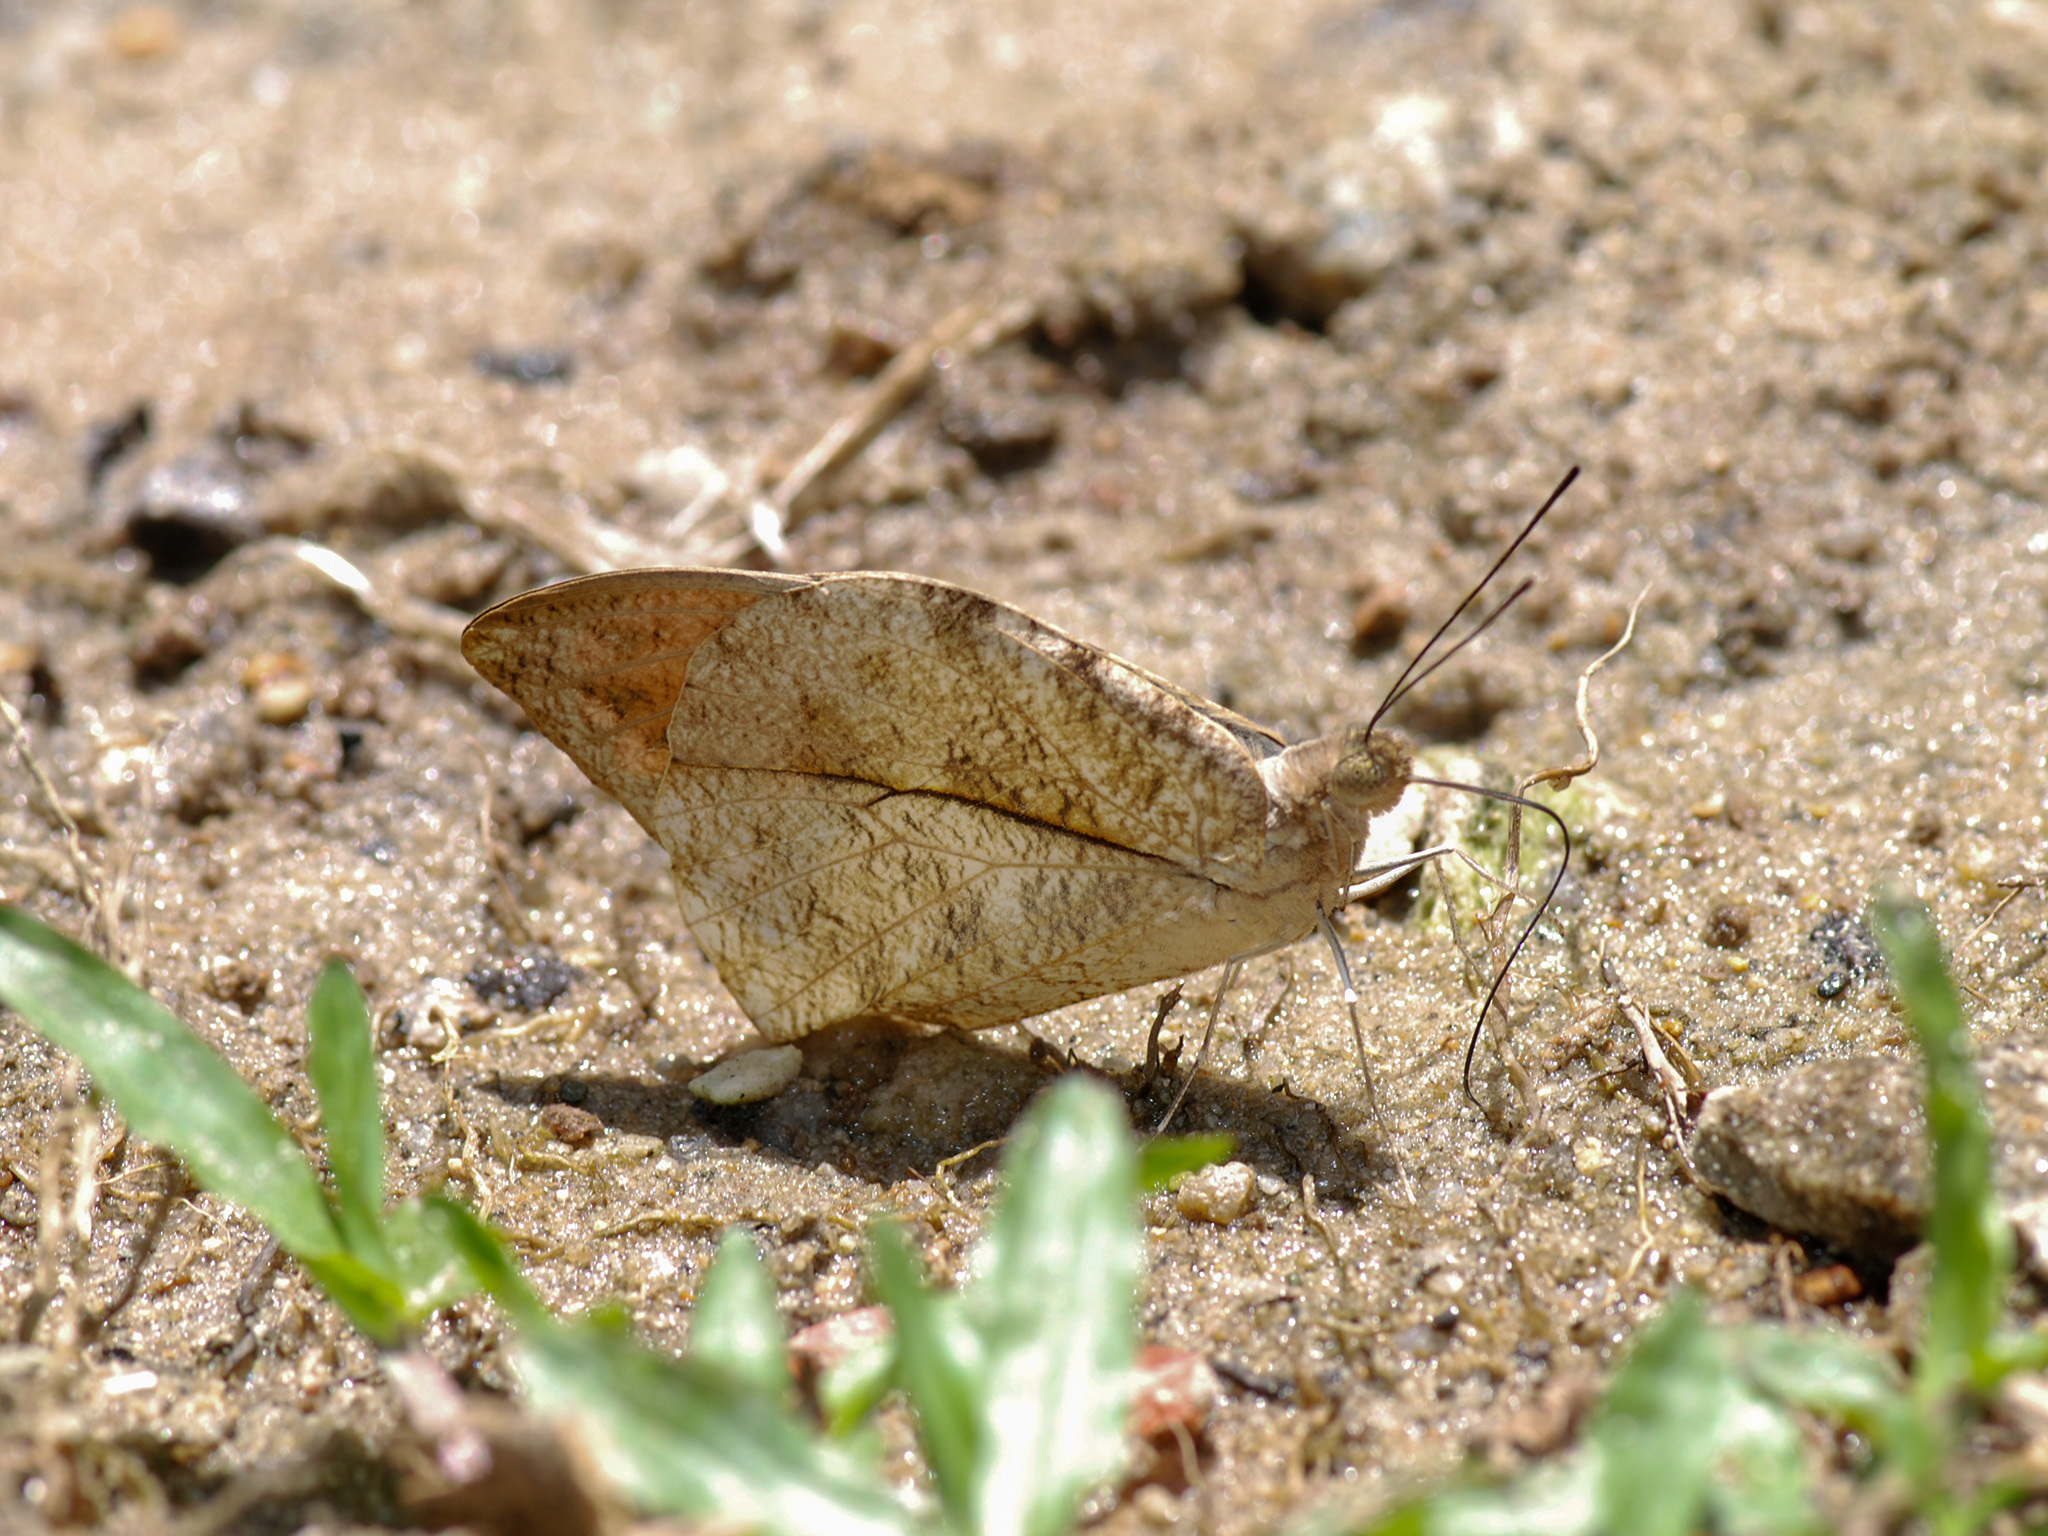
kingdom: Animalia
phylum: Arthropoda
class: Insecta
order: Lepidoptera
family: Pieridae
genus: Hebomoia
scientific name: Hebomoia glaucippe
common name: Great orange tip
